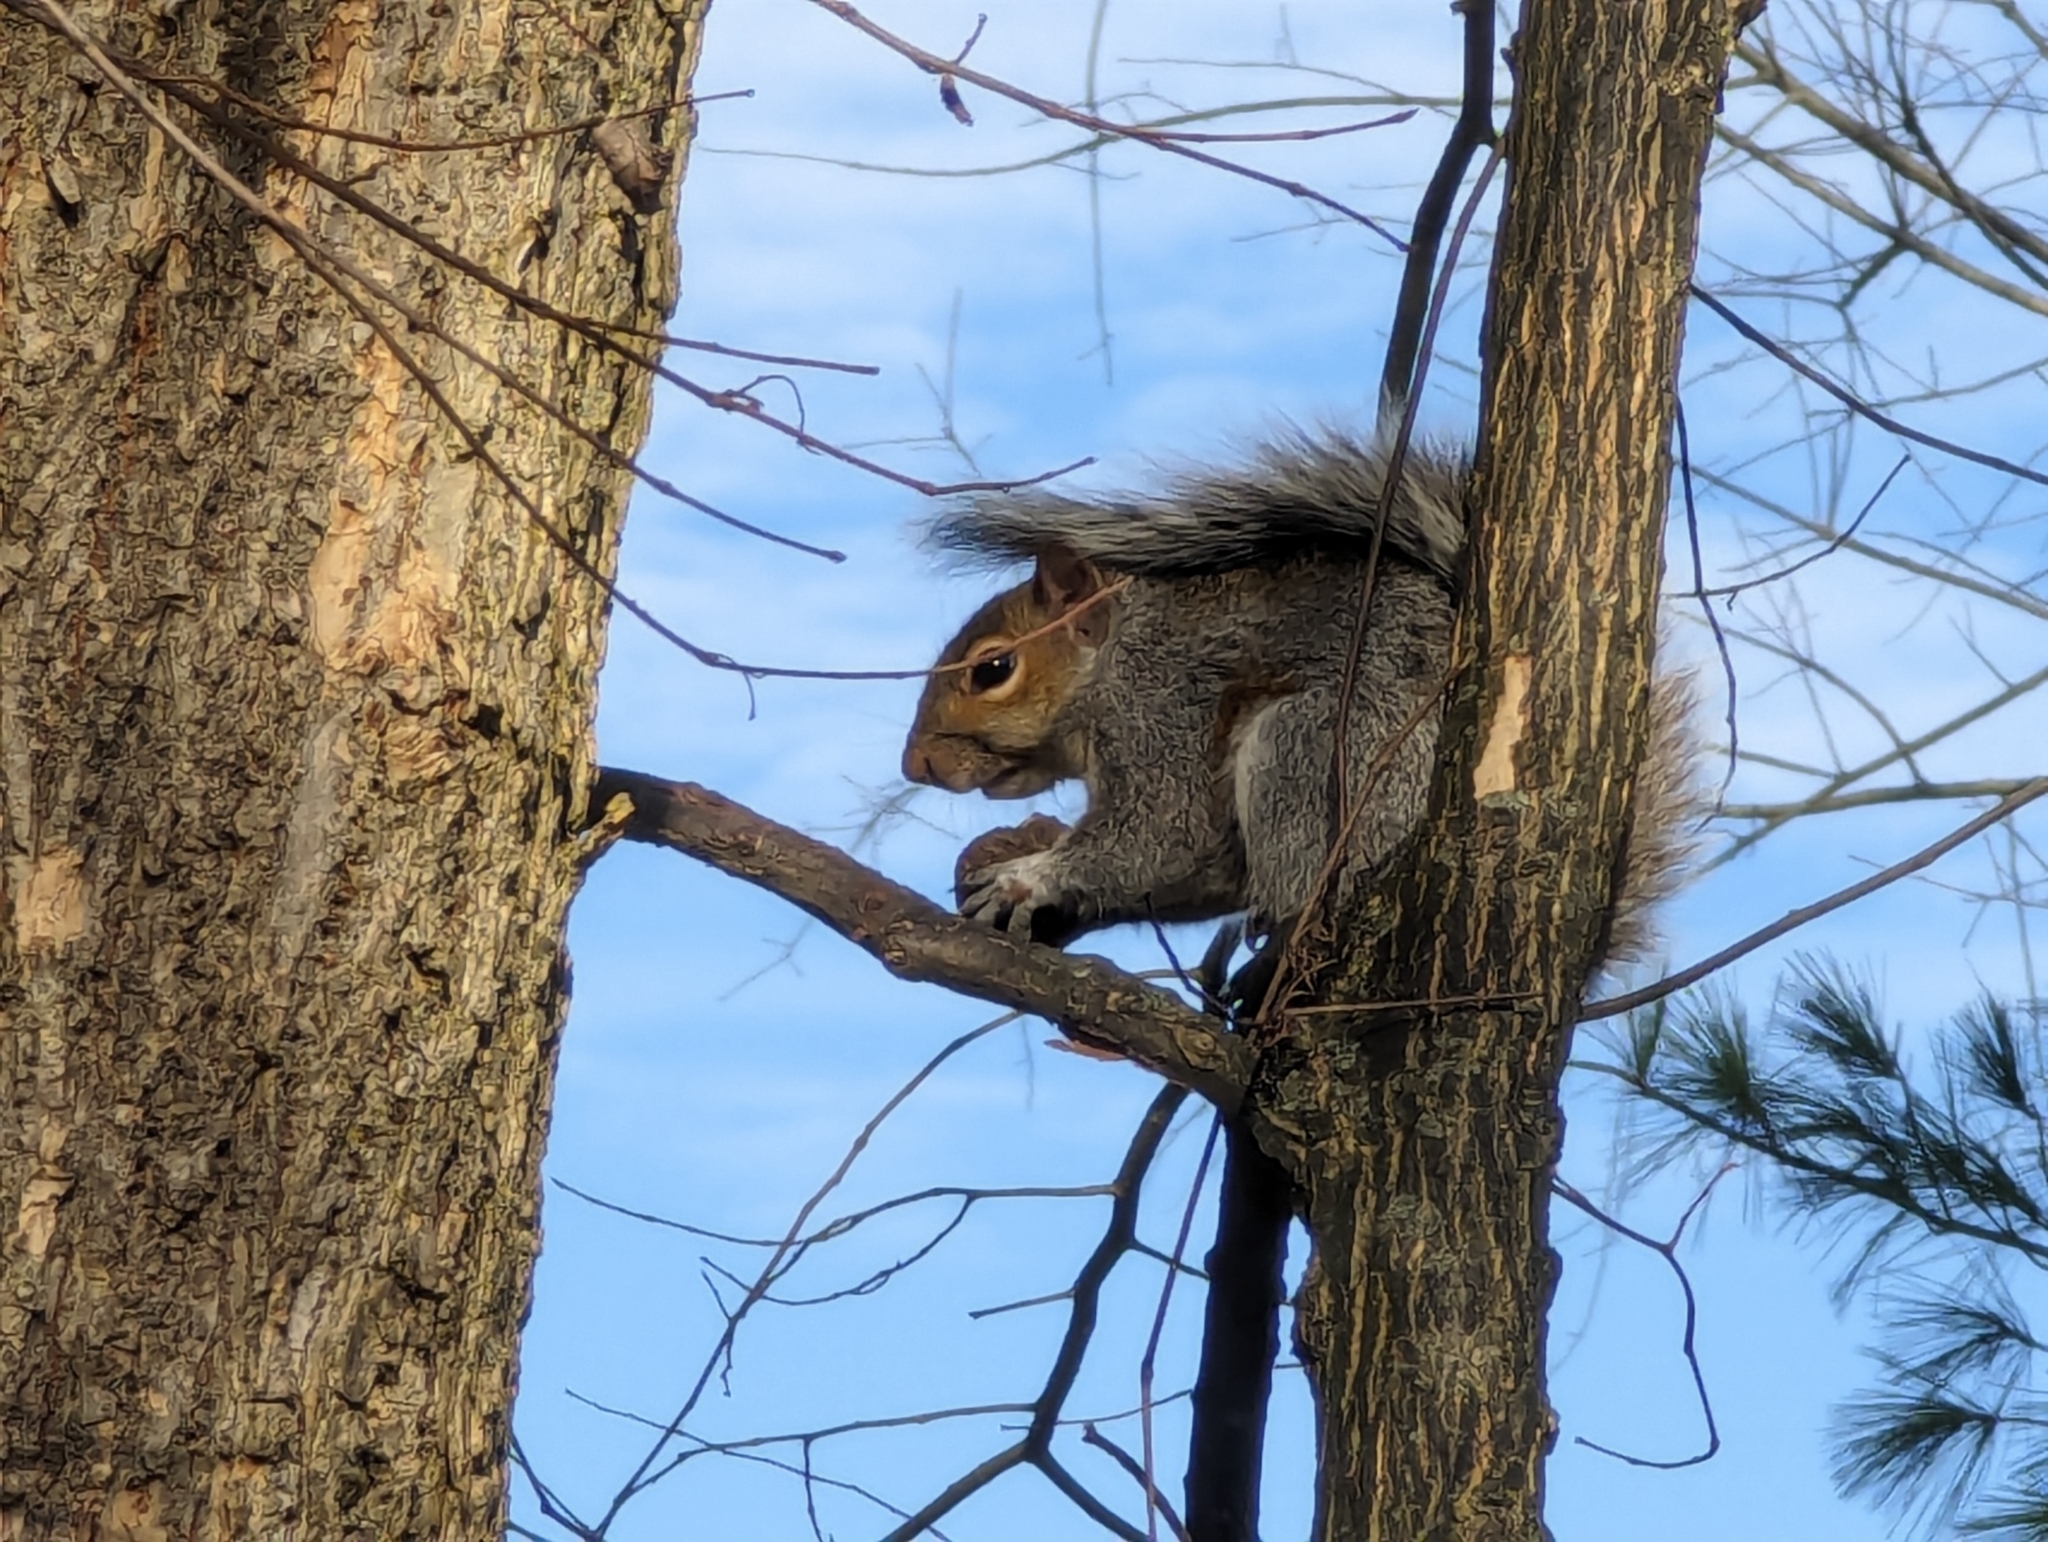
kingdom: Animalia
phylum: Chordata
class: Mammalia
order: Rodentia
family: Sciuridae
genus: Sciurus
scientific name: Sciurus carolinensis
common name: Eastern gray squirrel
